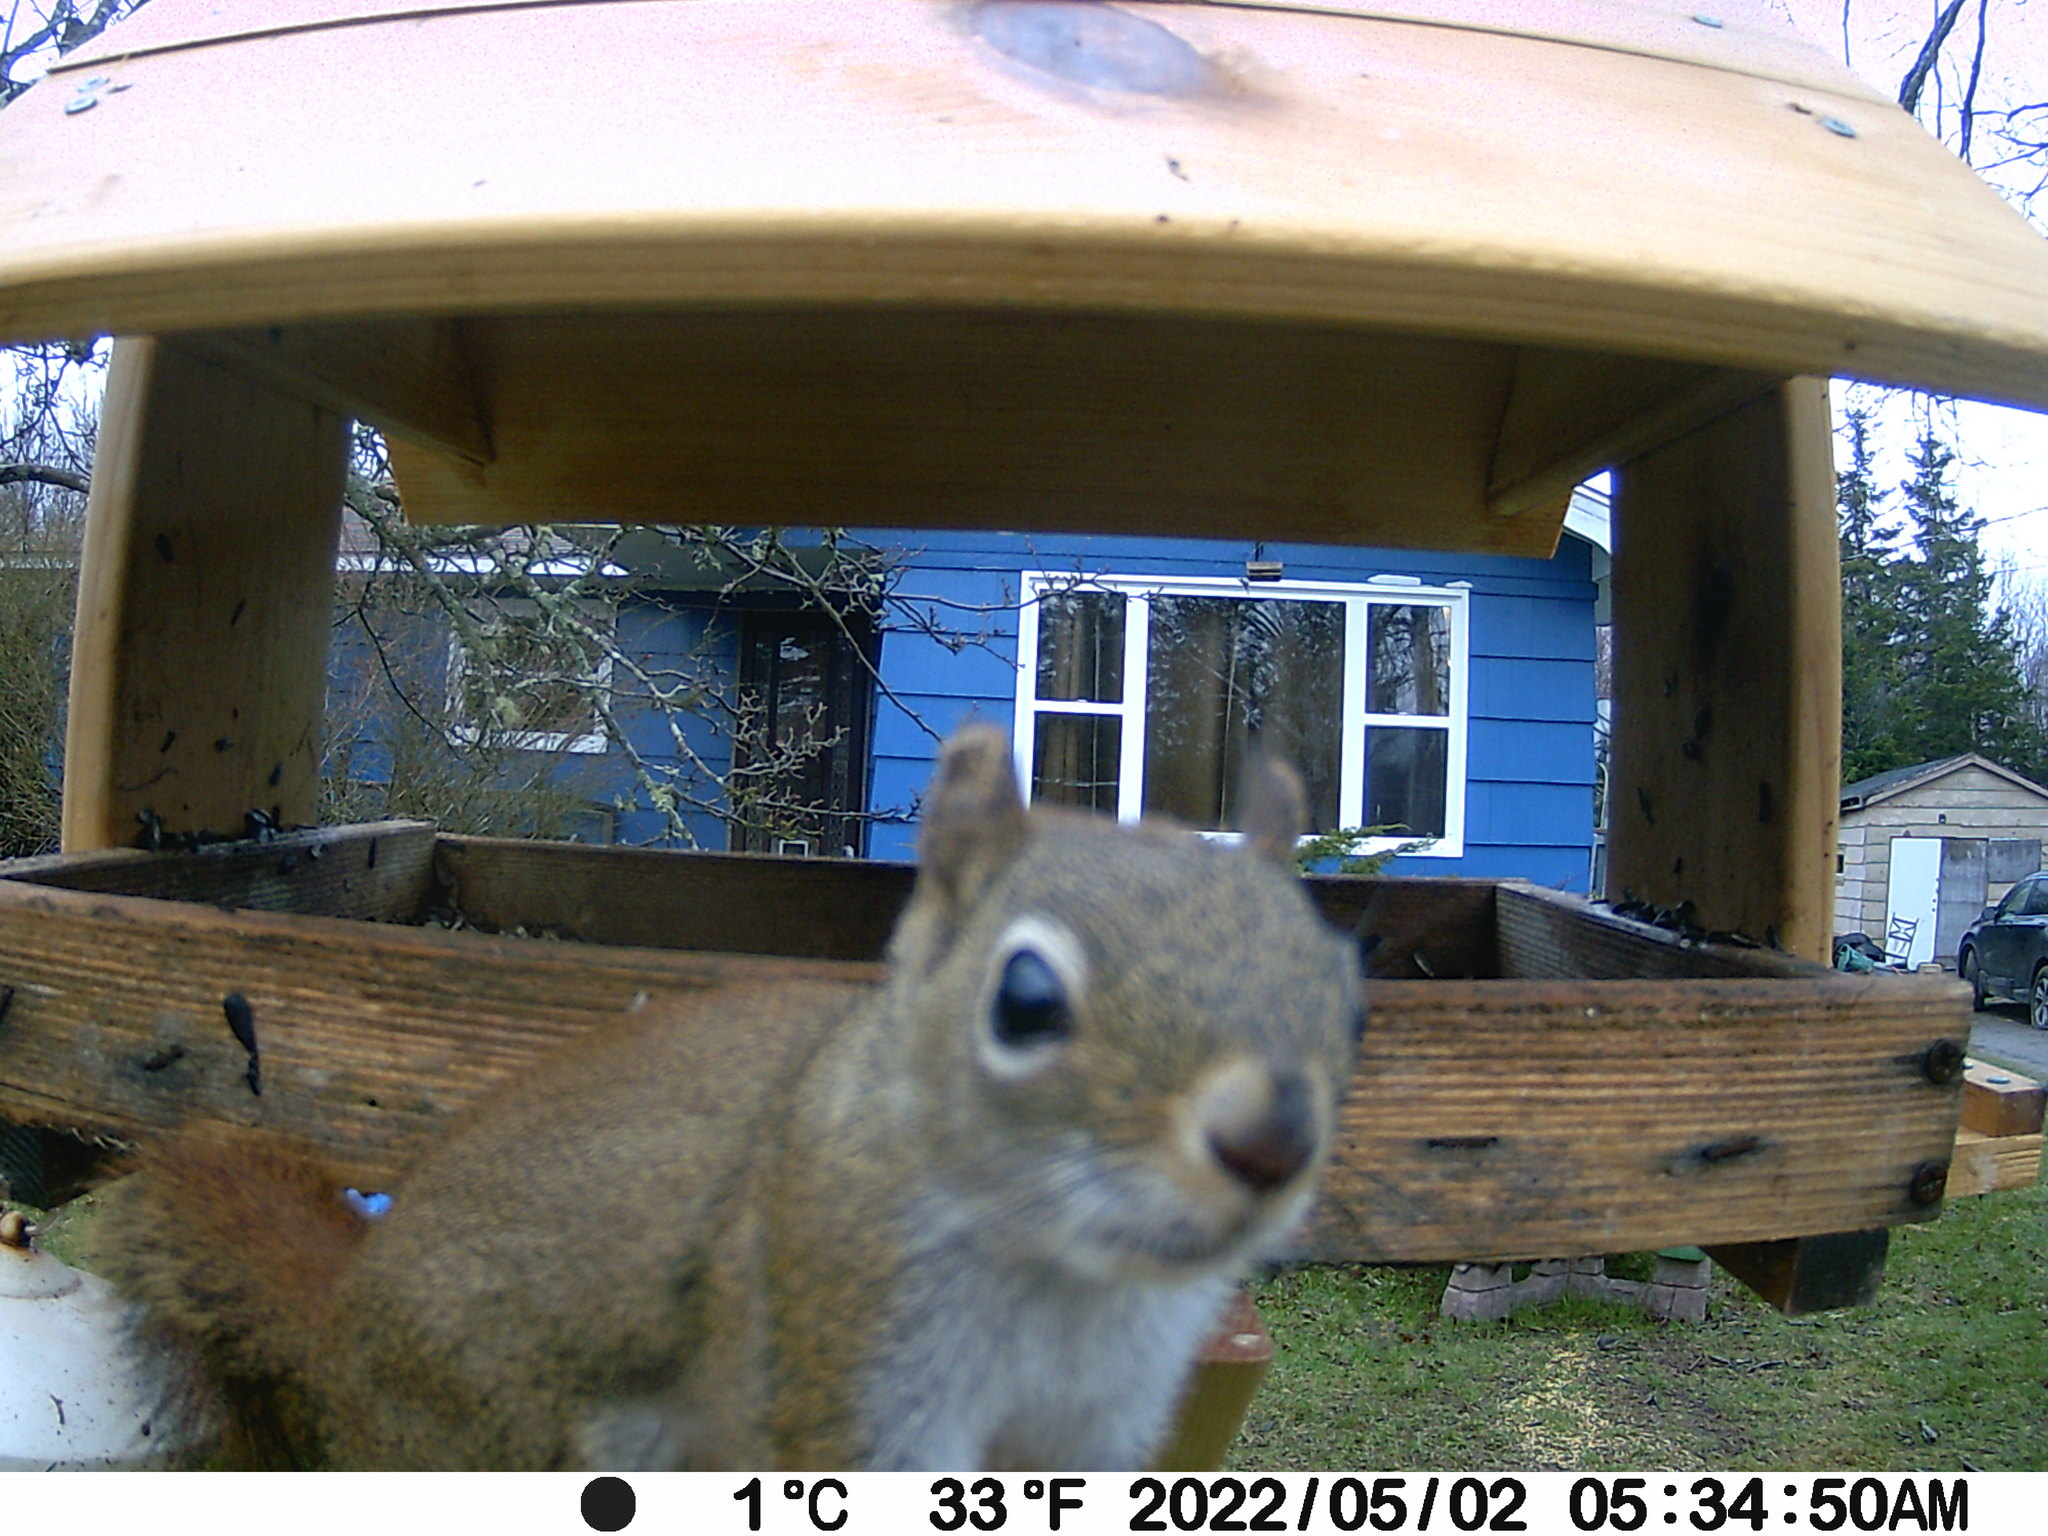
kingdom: Animalia
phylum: Chordata
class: Mammalia
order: Rodentia
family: Sciuridae
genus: Tamiasciurus
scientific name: Tamiasciurus hudsonicus
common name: Red squirrel
